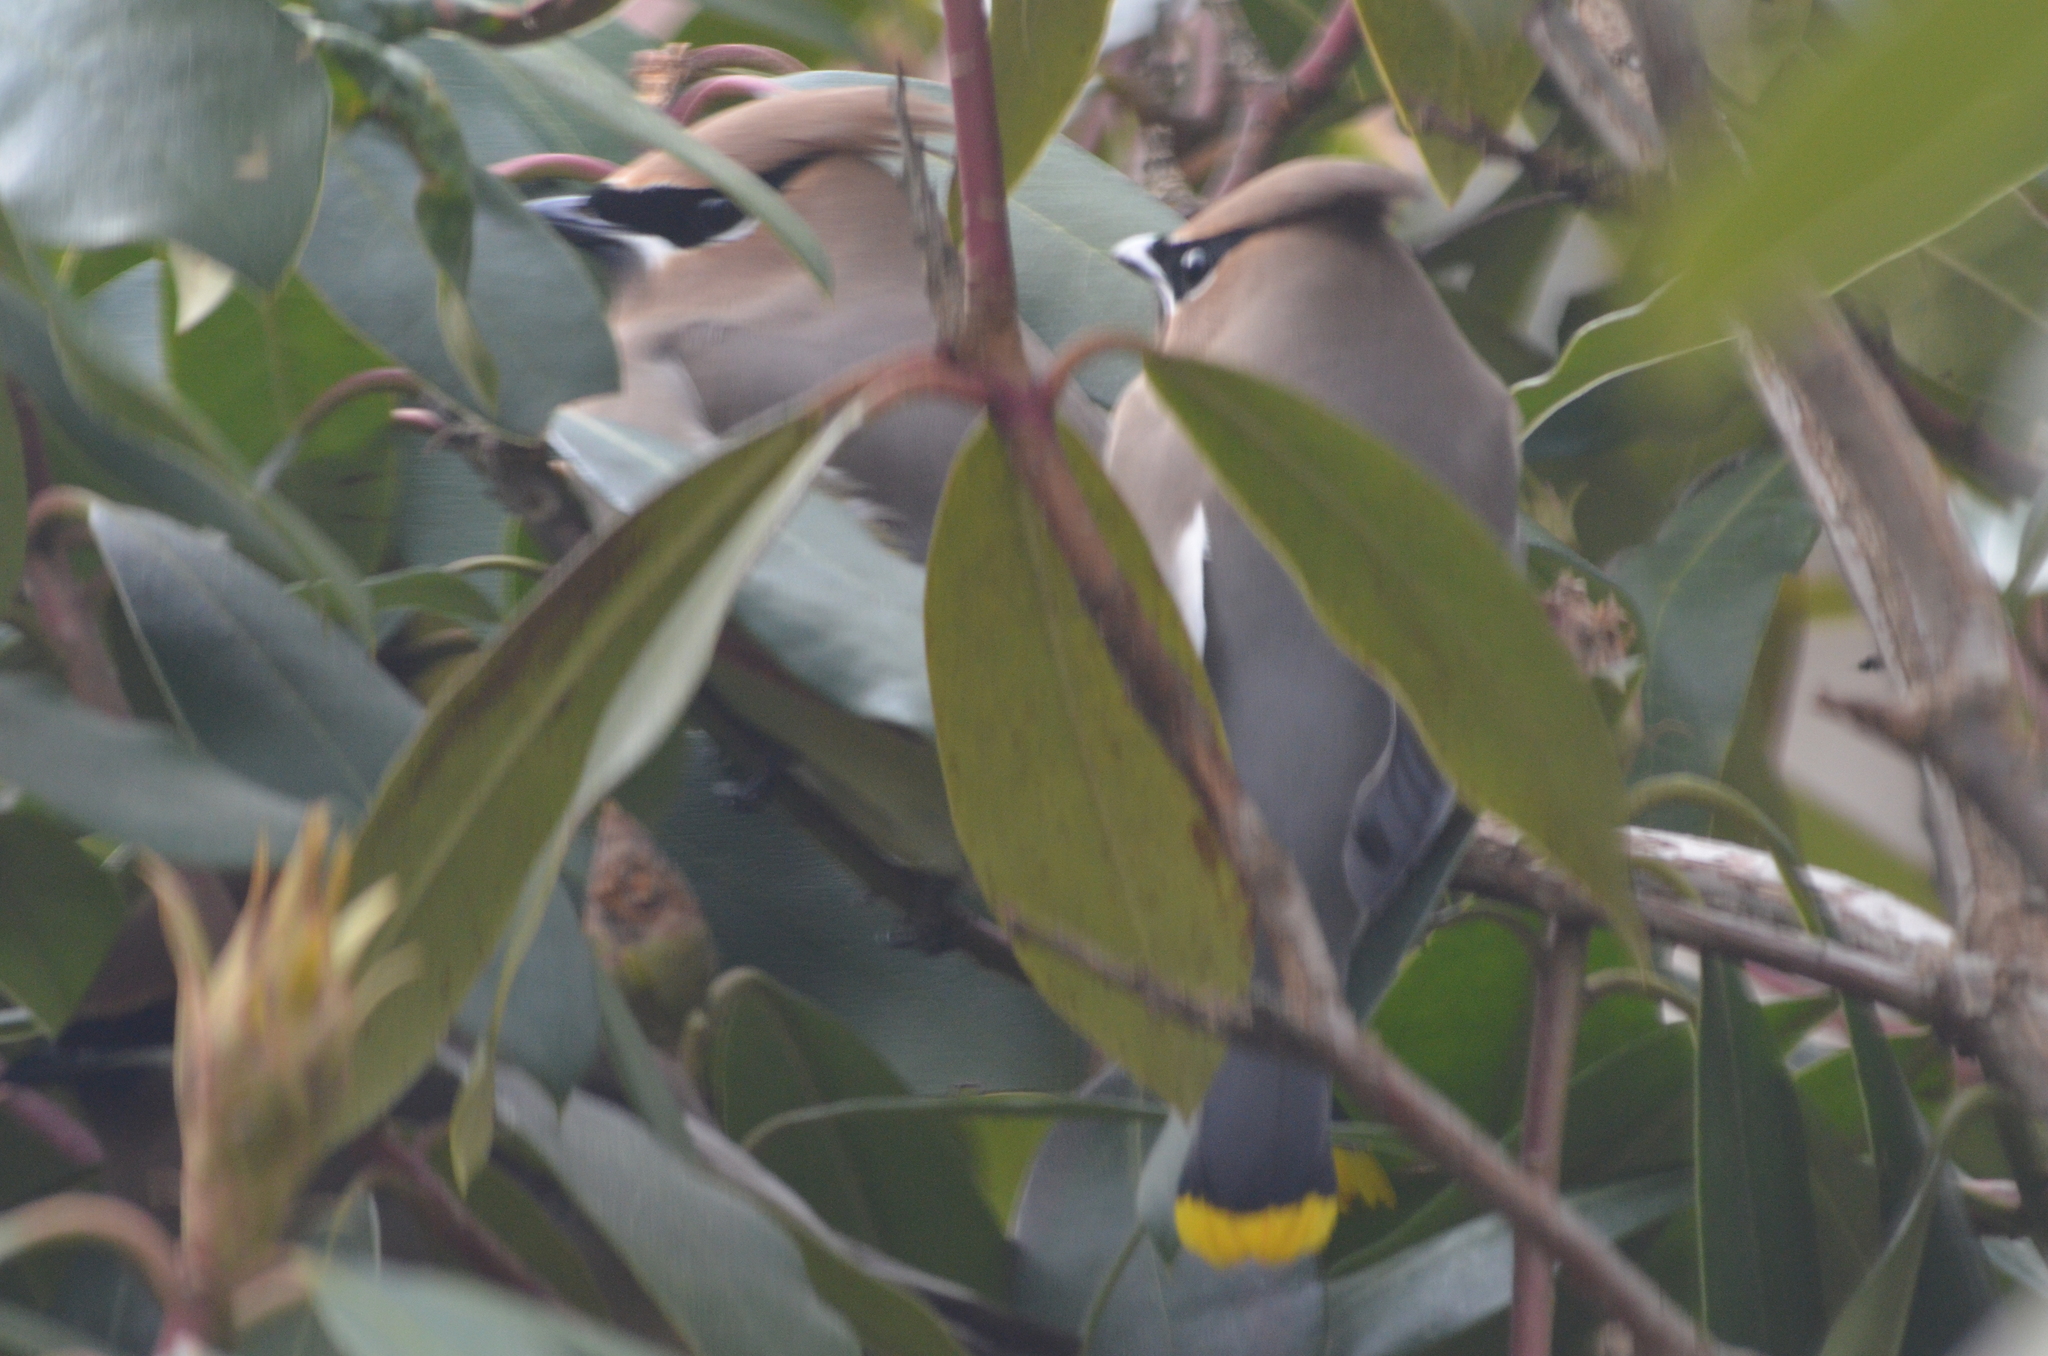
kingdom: Animalia
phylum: Chordata
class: Aves
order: Passeriformes
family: Bombycillidae
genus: Bombycilla
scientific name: Bombycilla cedrorum
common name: Cedar waxwing
